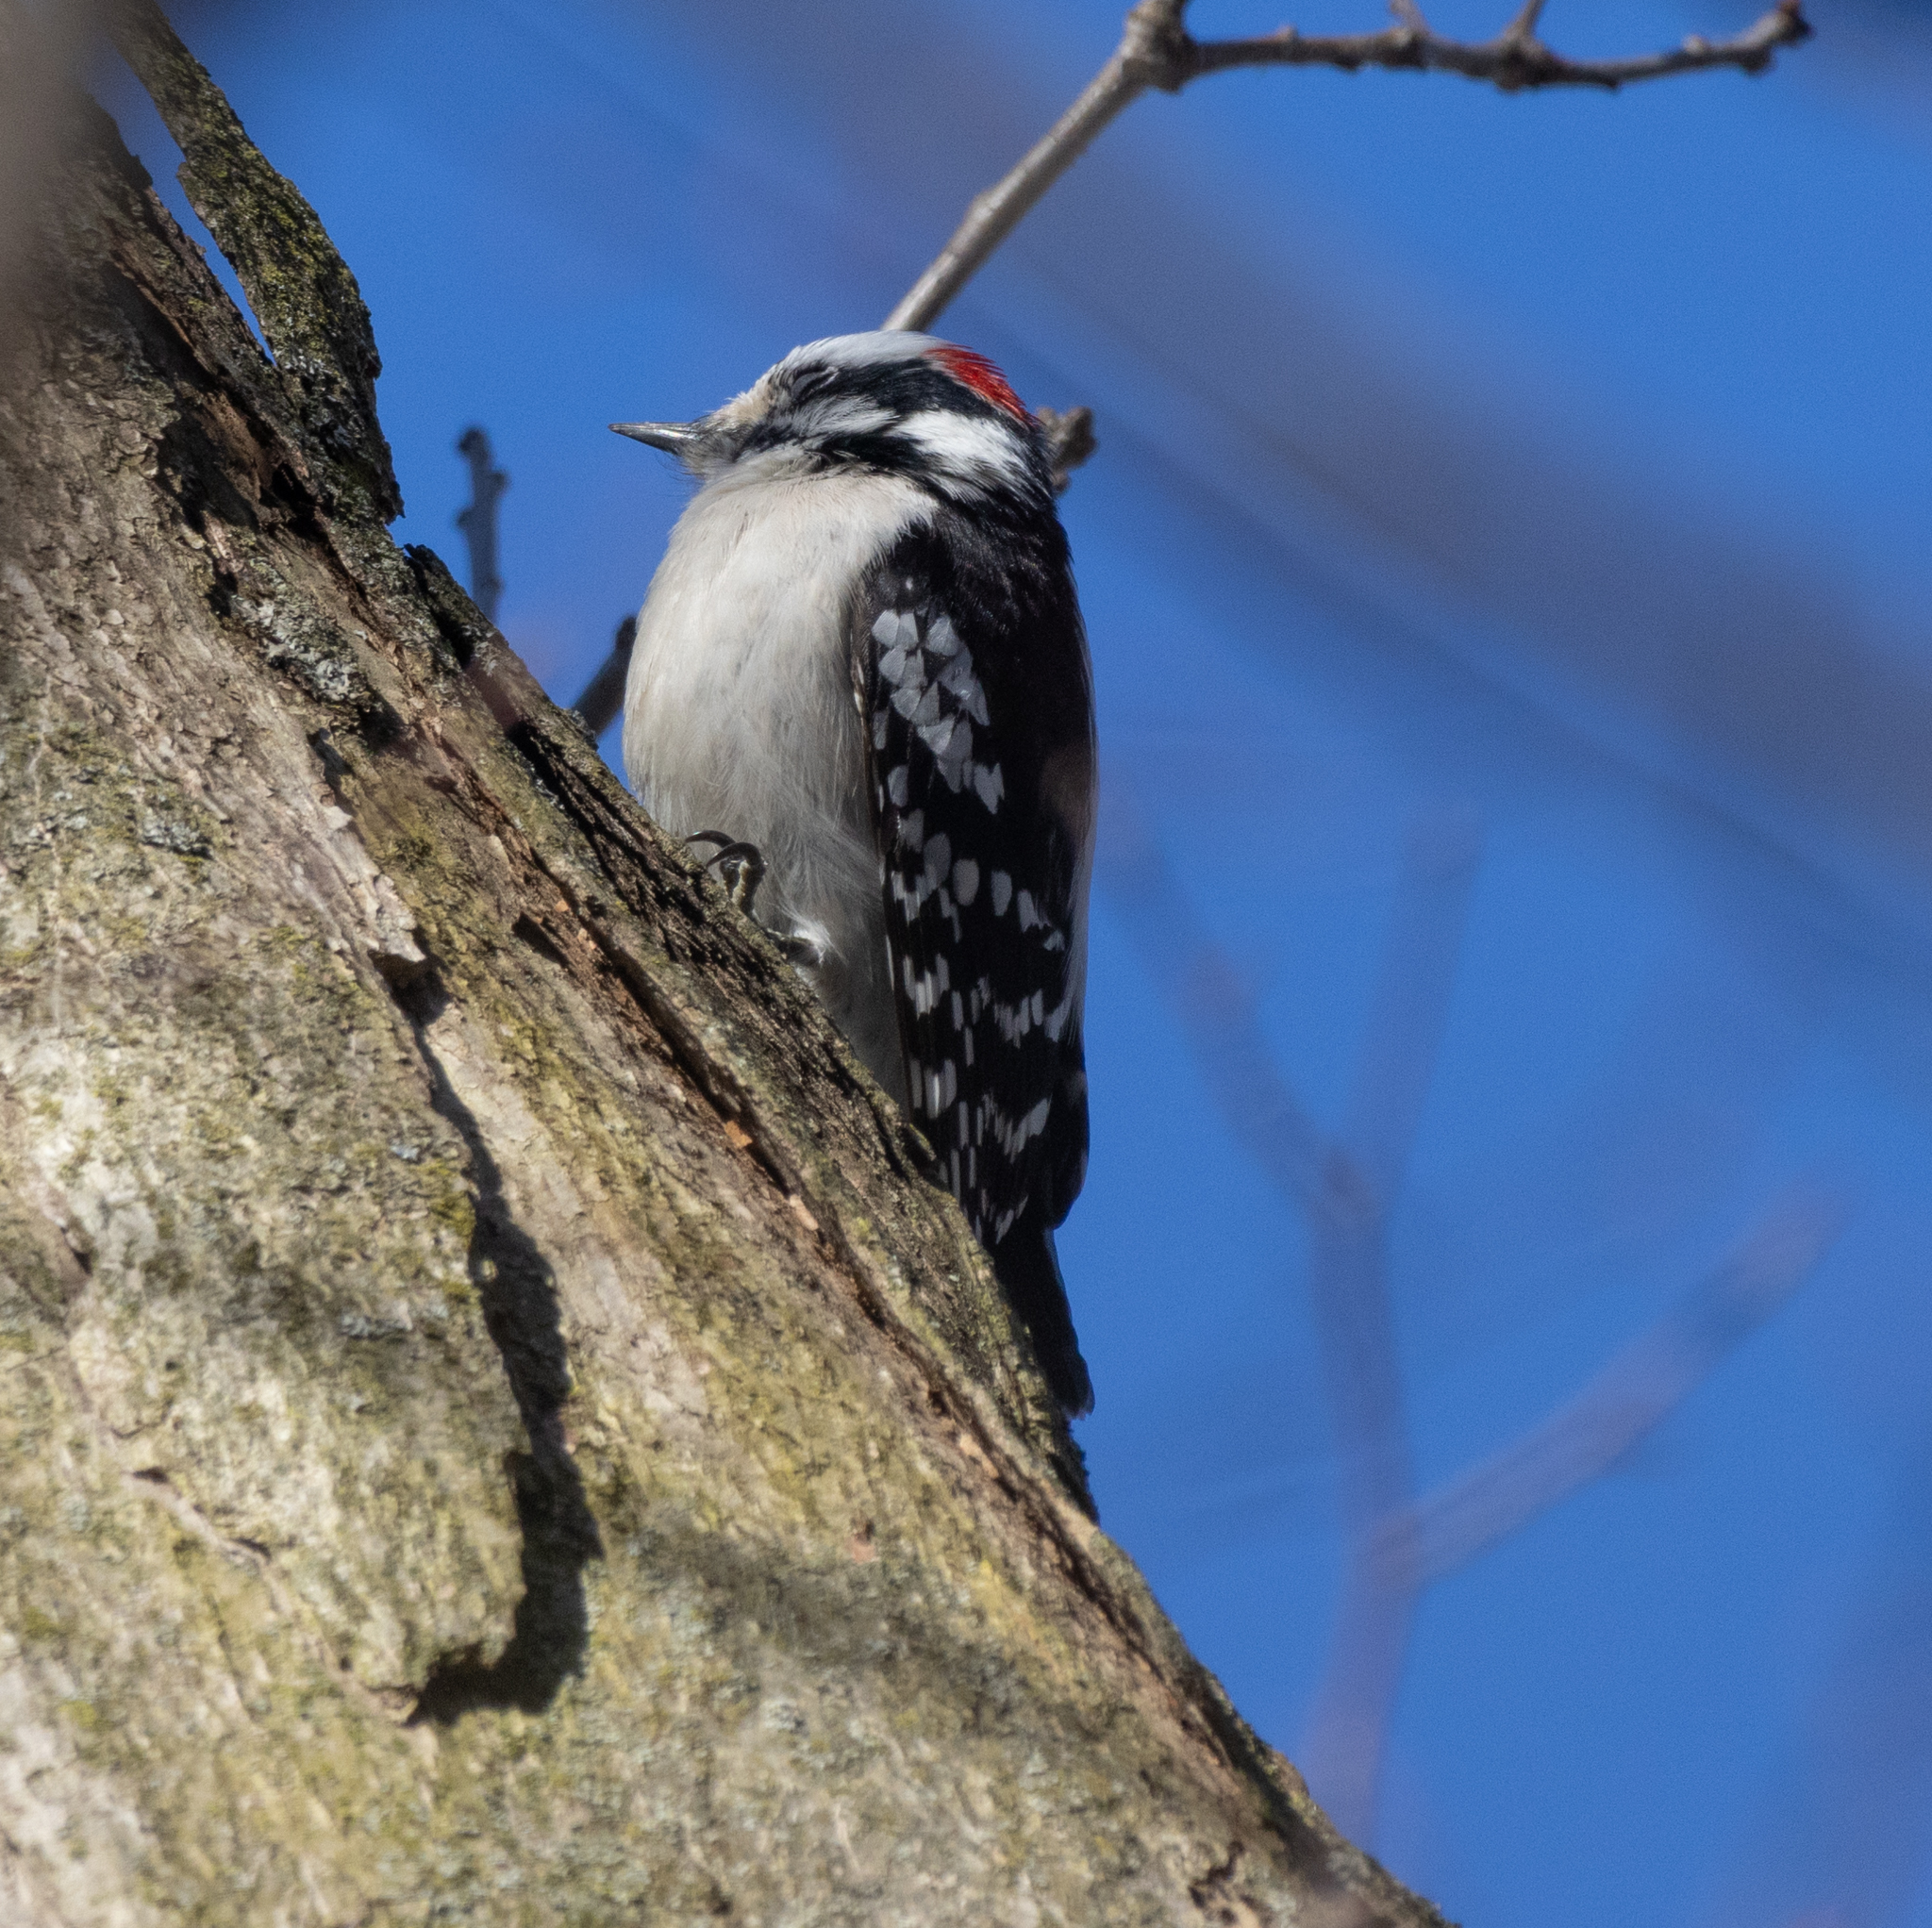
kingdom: Animalia
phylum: Chordata
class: Aves
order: Piciformes
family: Picidae
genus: Dryobates
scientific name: Dryobates pubescens
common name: Downy woodpecker
